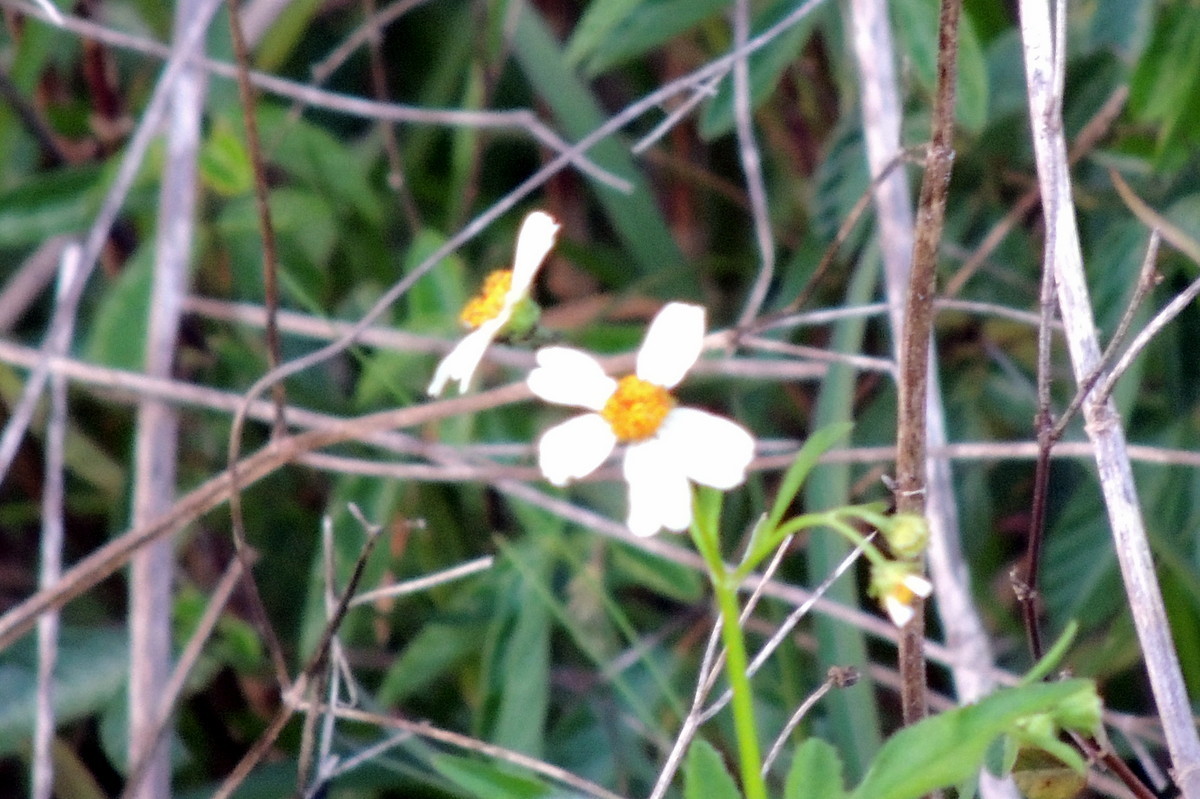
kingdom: Plantae
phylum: Tracheophyta
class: Magnoliopsida
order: Asterales
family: Asteraceae
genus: Bidens
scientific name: Bidens alba
